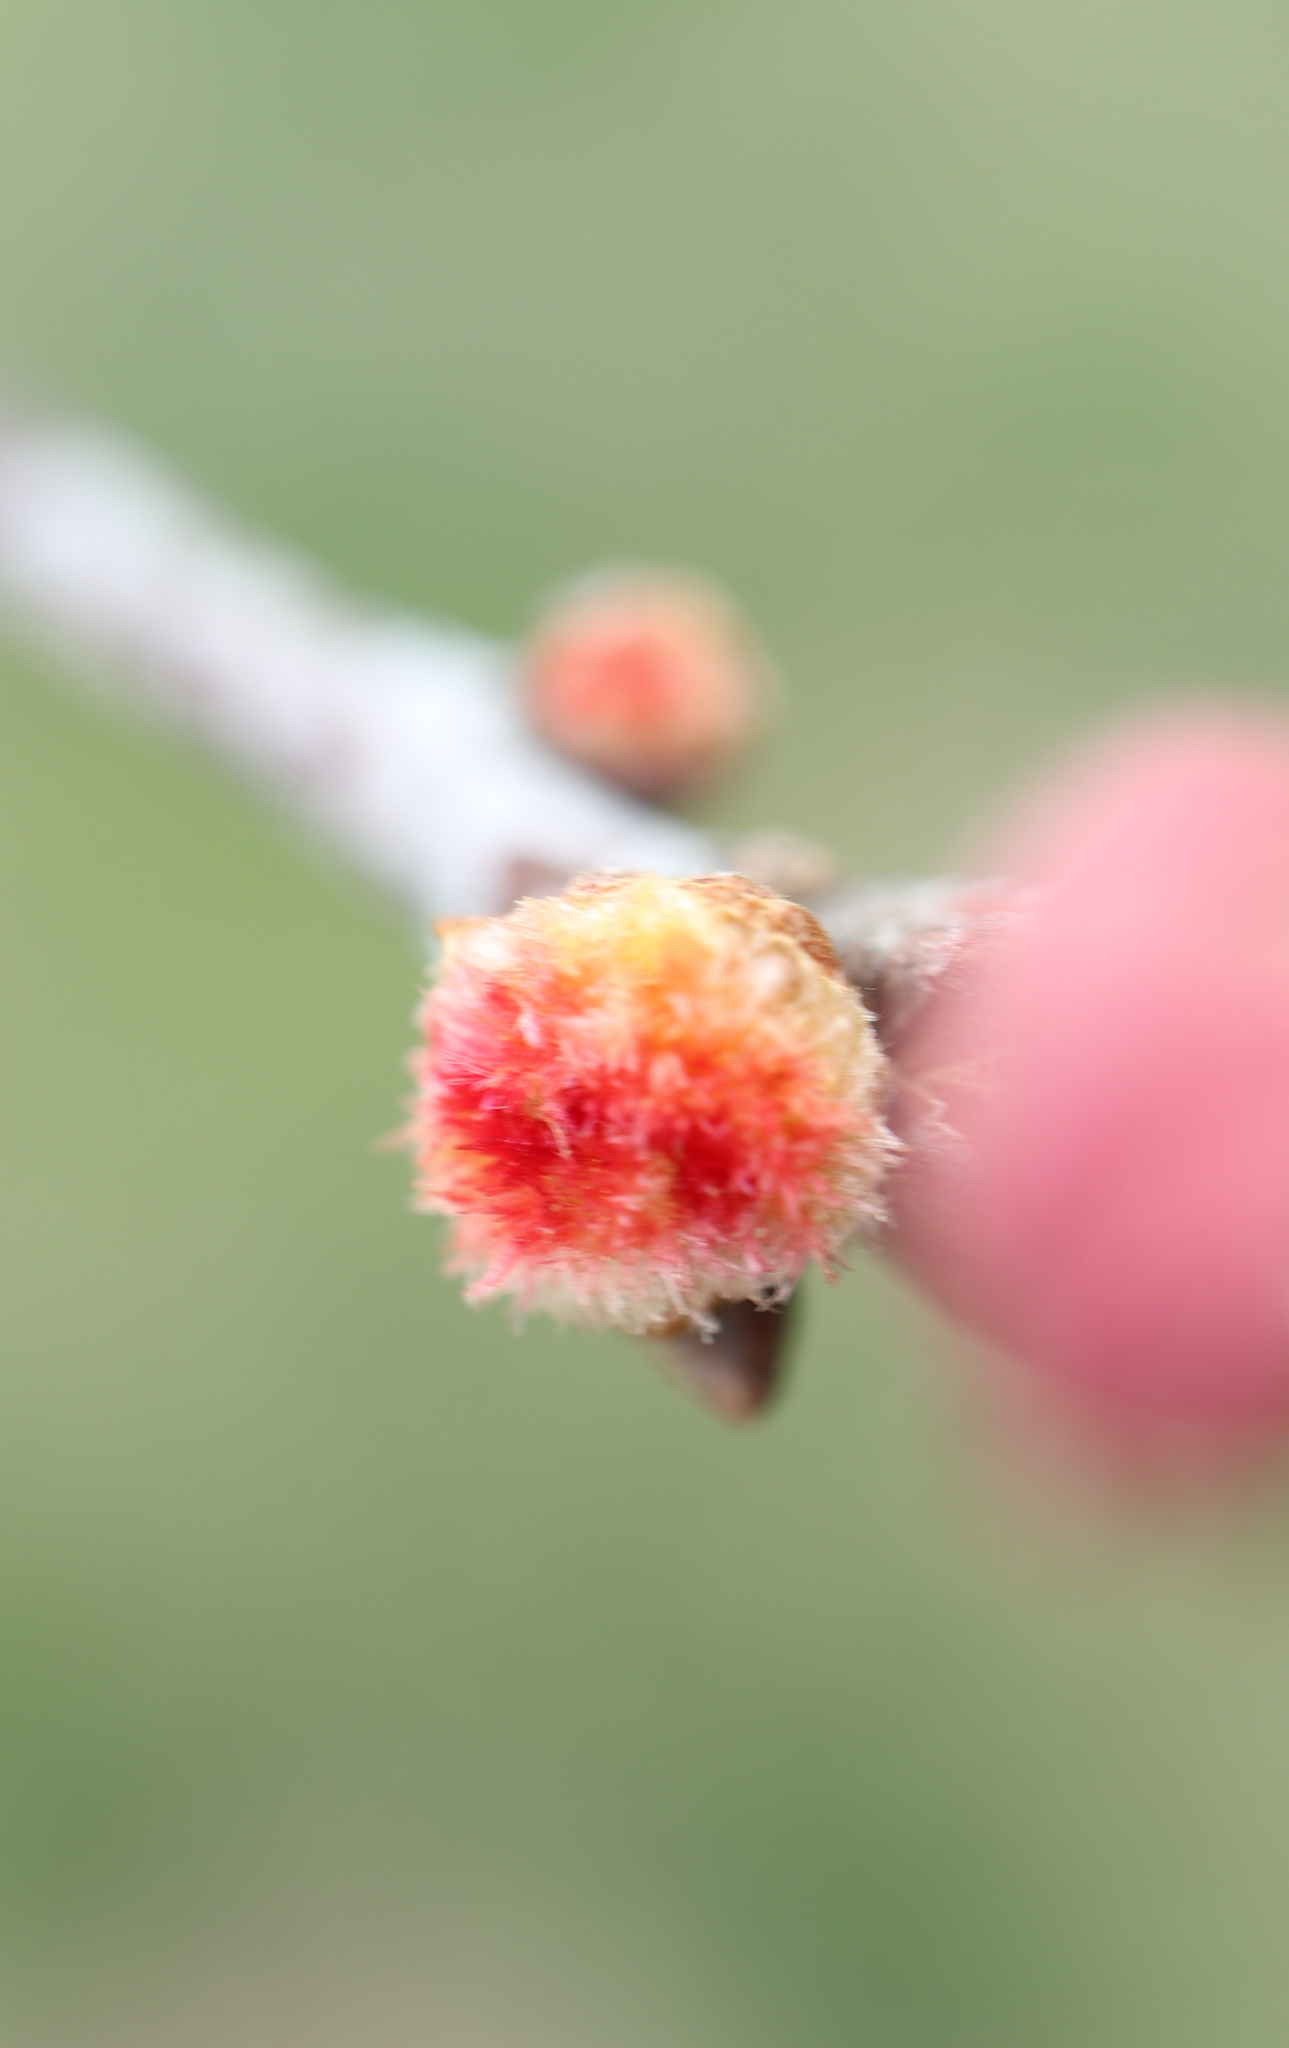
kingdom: Animalia
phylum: Arthropoda
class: Insecta
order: Hymenoptera
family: Cynipidae
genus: Callirhytis
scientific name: Callirhytis
